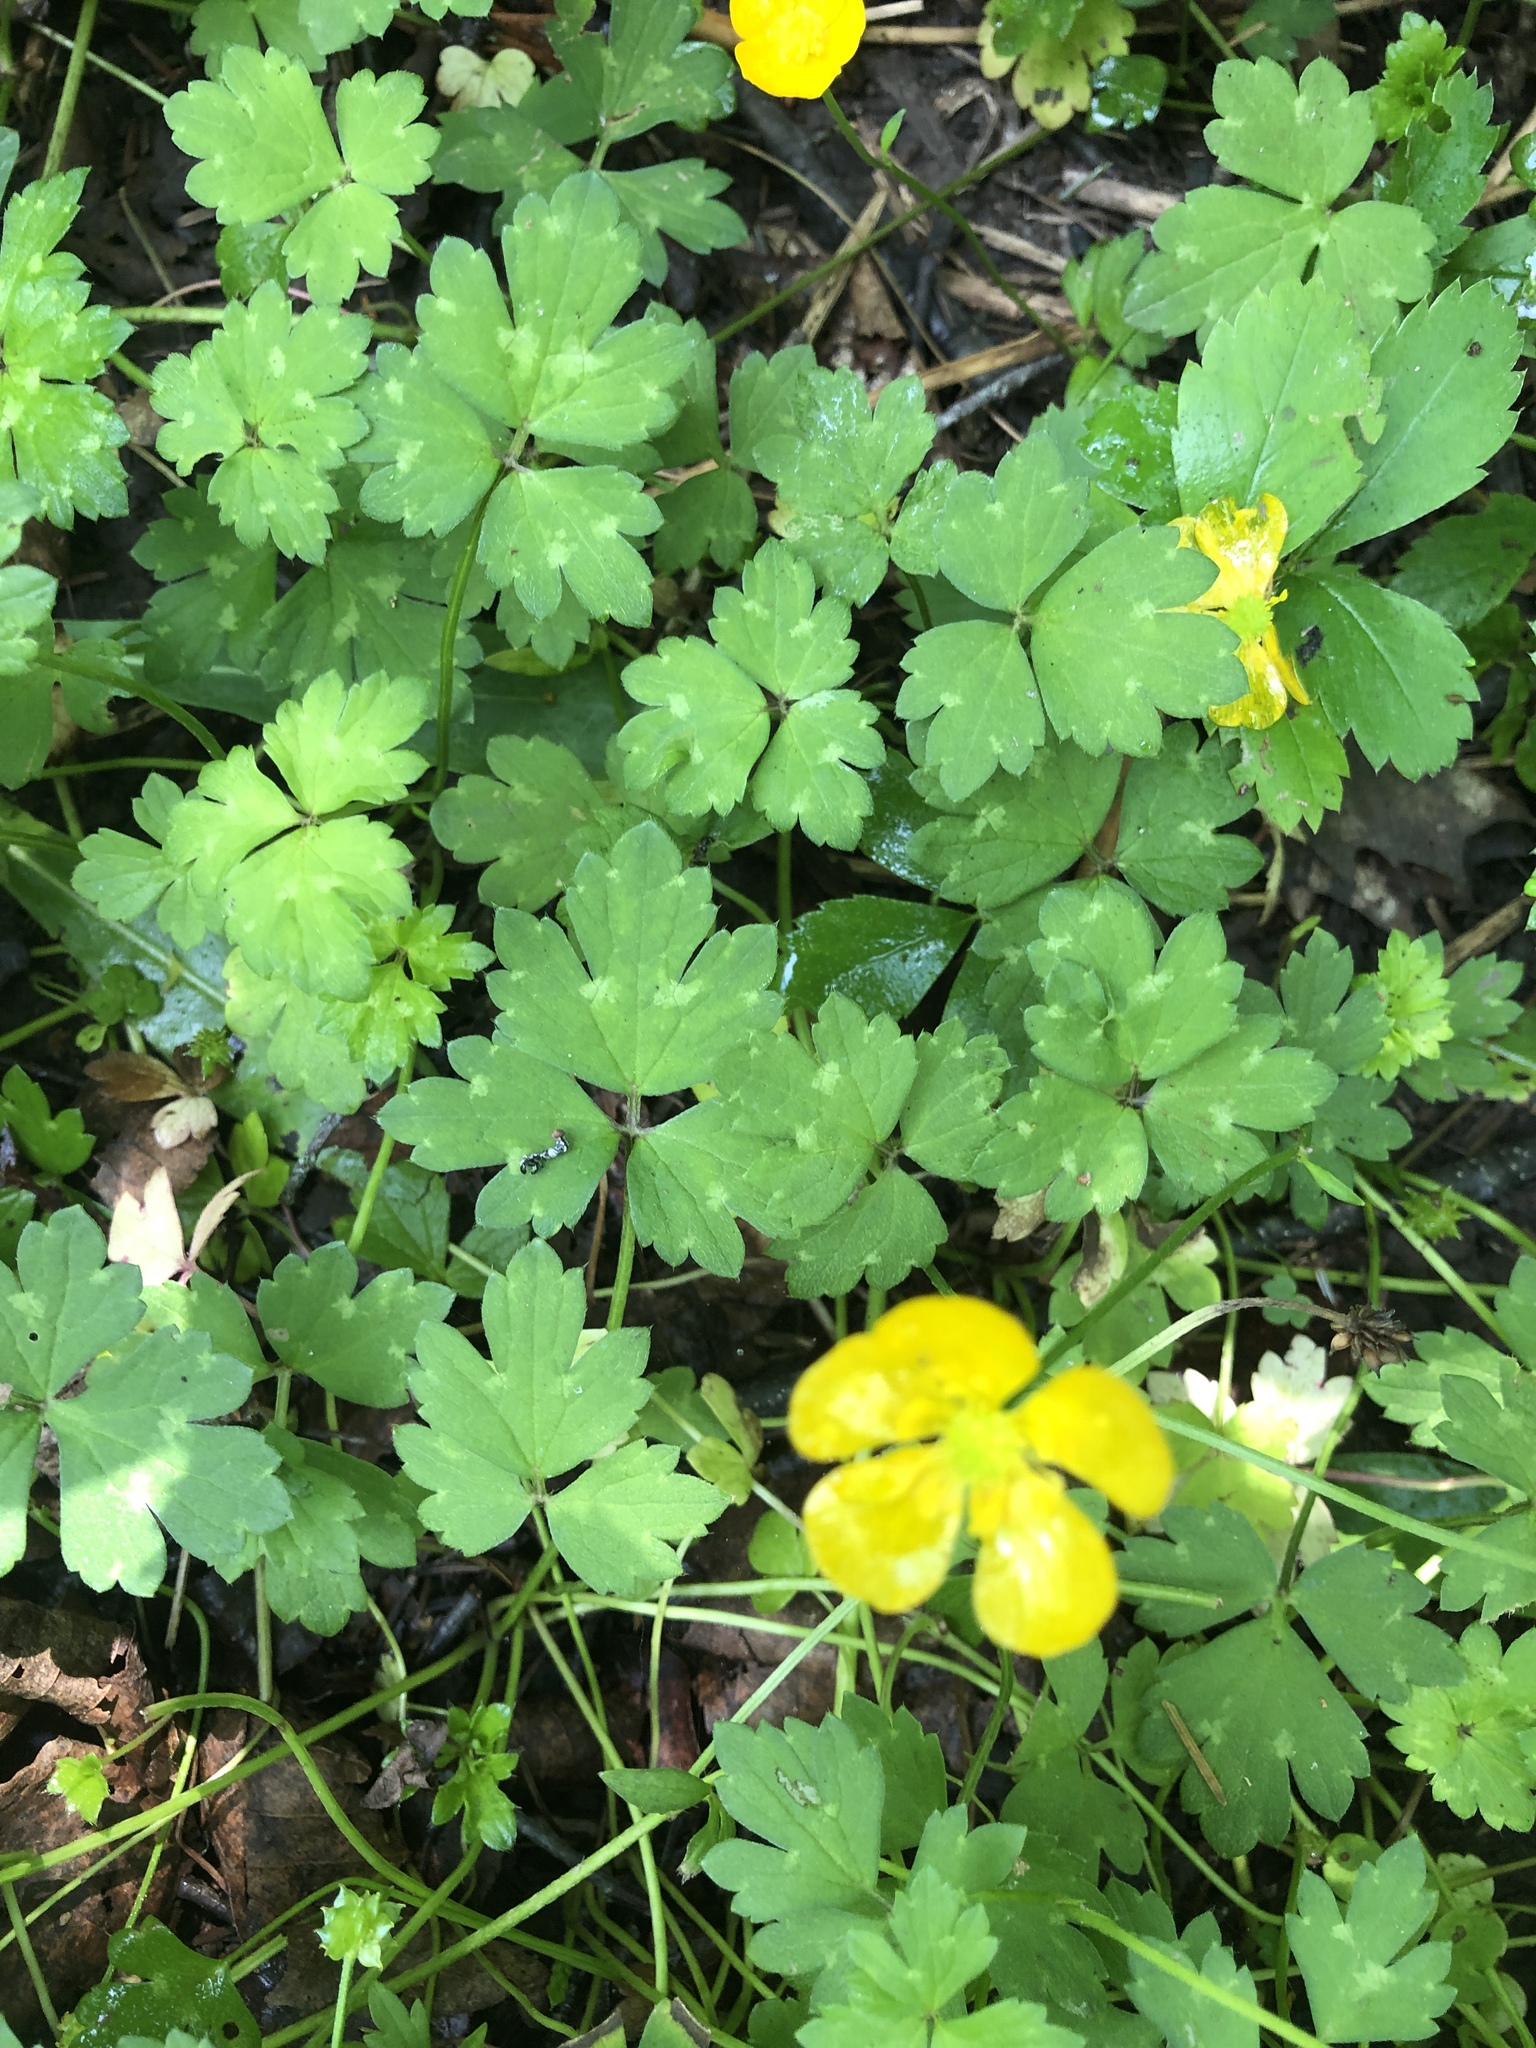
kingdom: Plantae
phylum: Tracheophyta
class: Magnoliopsida
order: Ranunculales
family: Ranunculaceae
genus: Ranunculus
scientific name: Ranunculus repens
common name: Creeping buttercup
